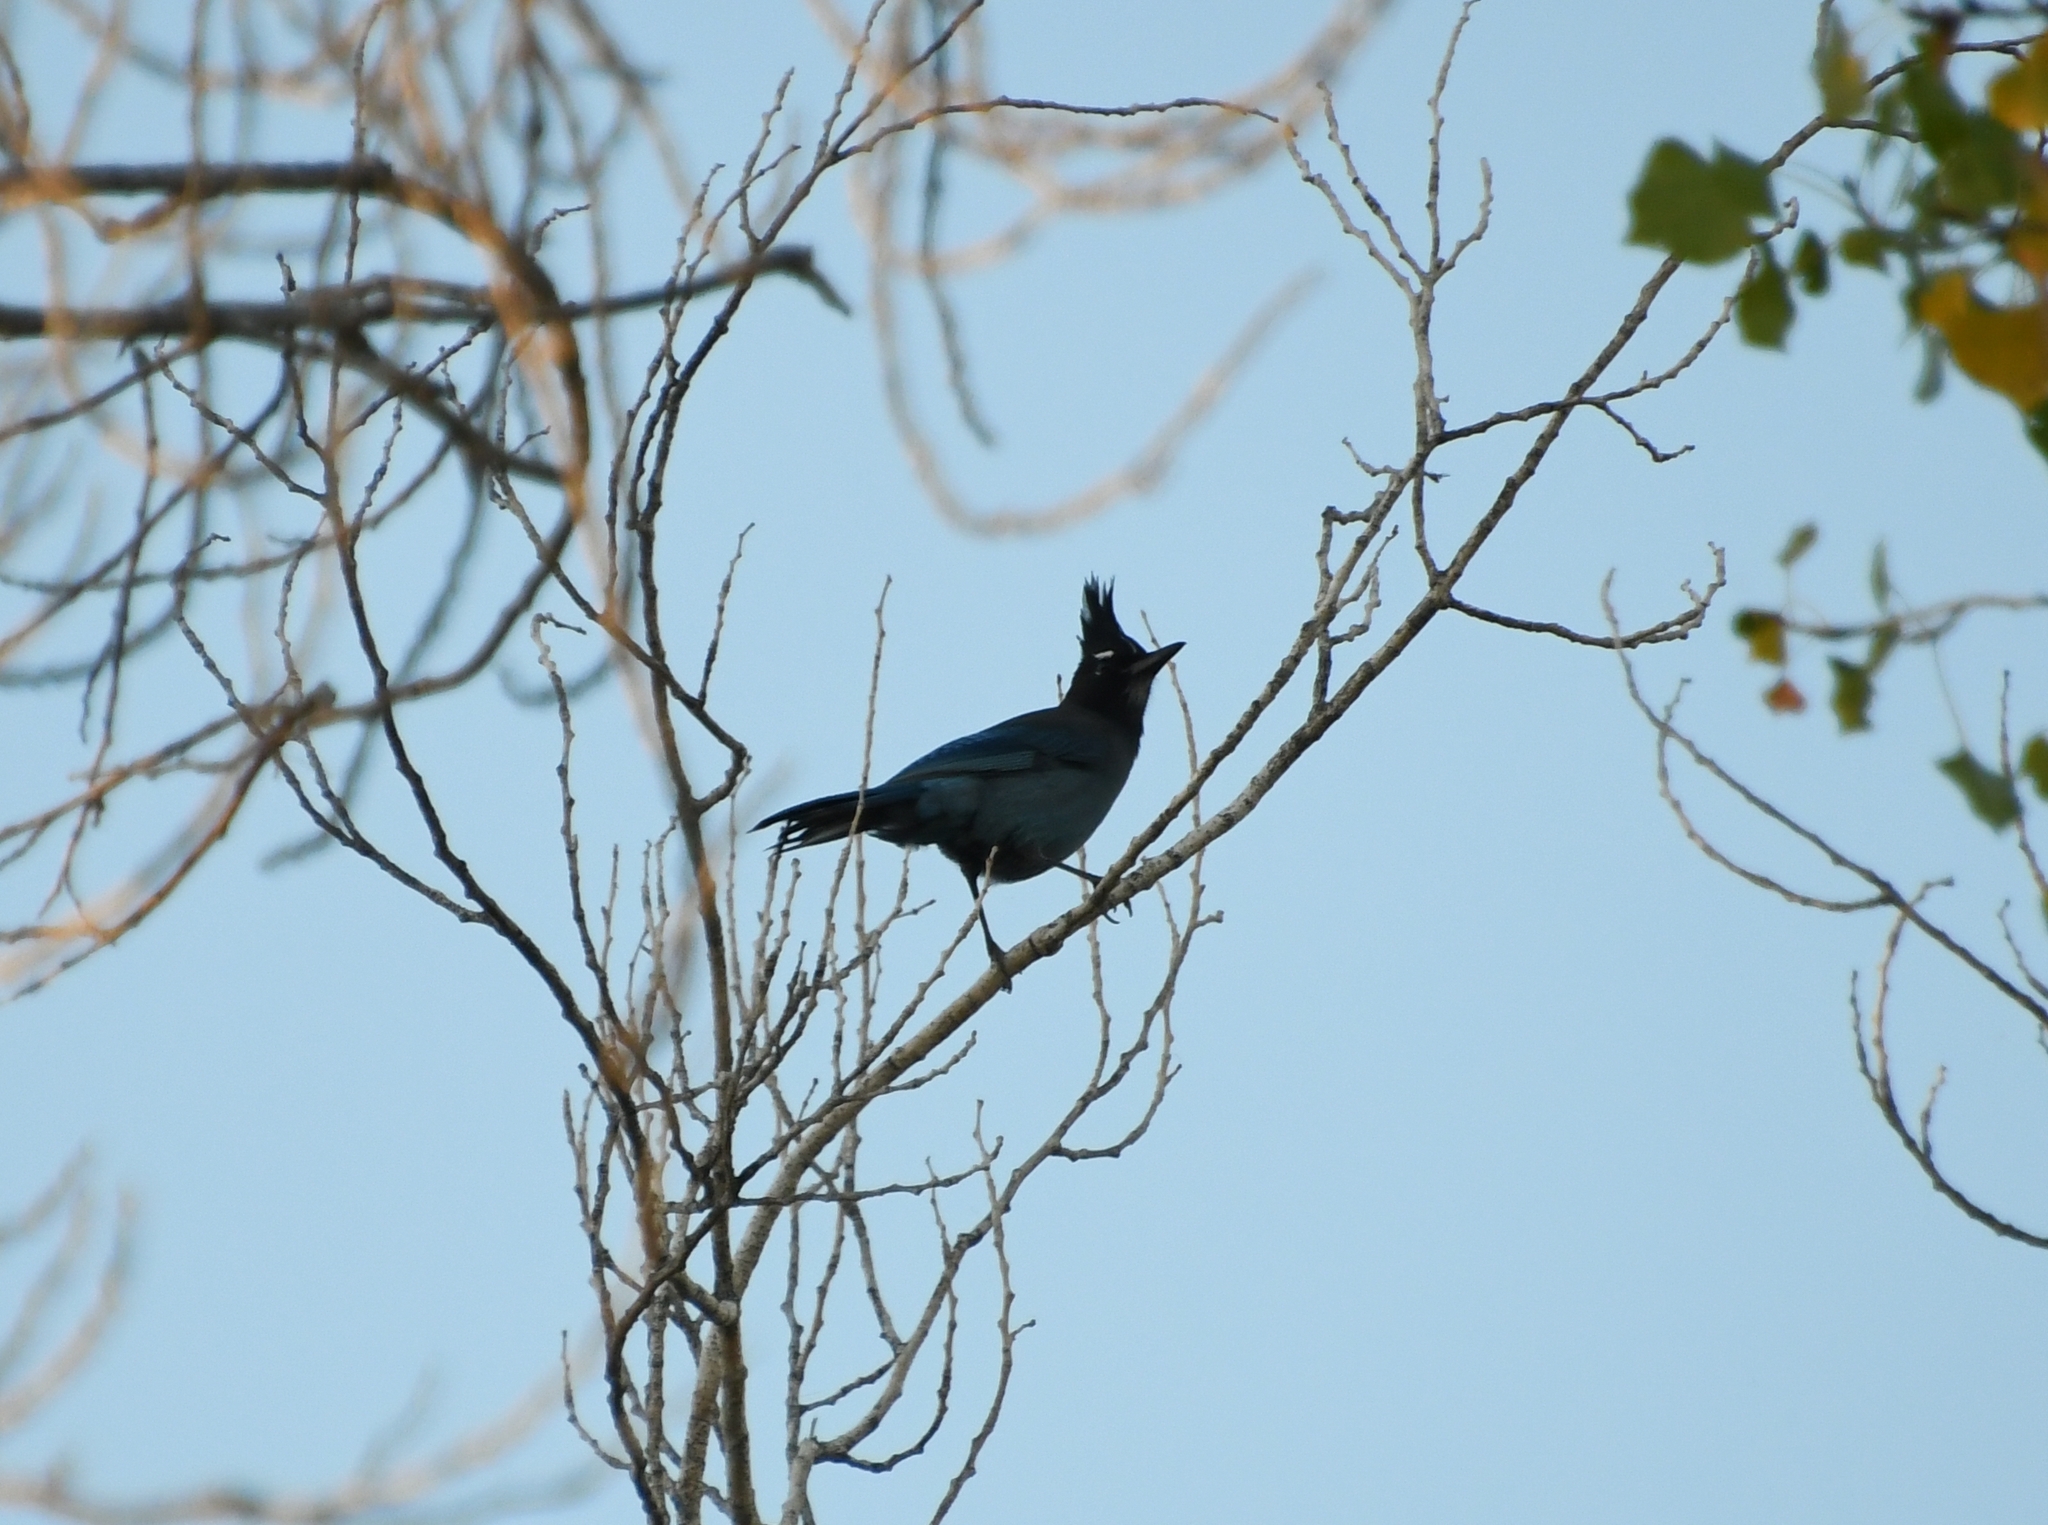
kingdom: Animalia
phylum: Chordata
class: Aves
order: Passeriformes
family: Corvidae
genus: Cyanocitta
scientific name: Cyanocitta stelleri
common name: Steller's jay
